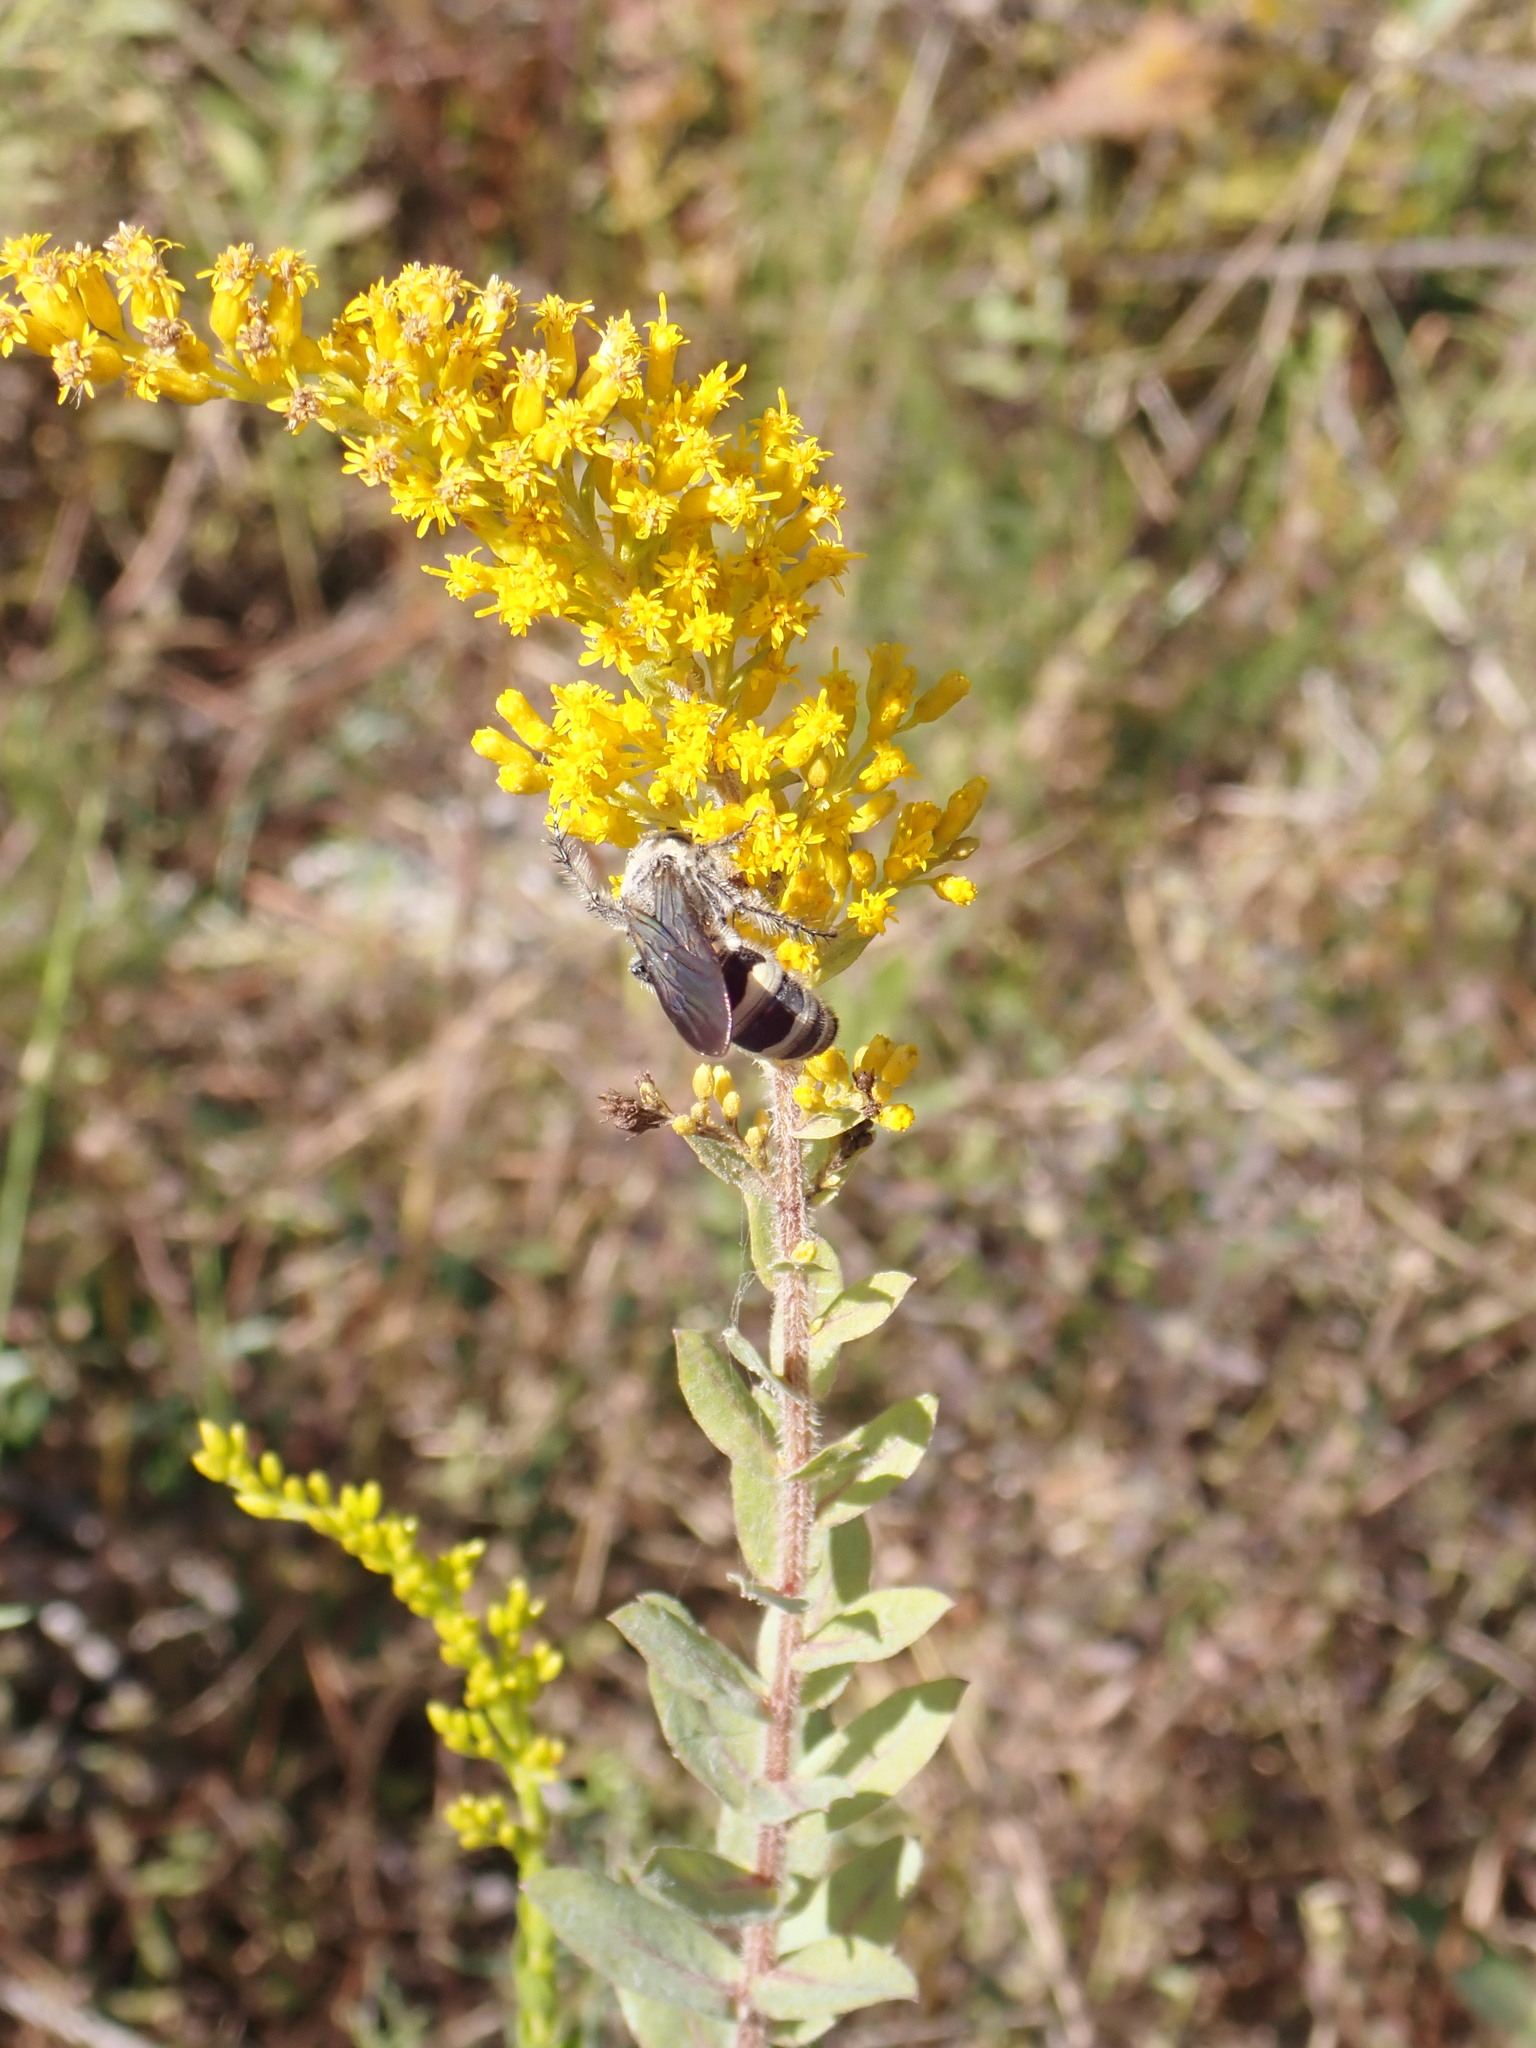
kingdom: Animalia
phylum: Arthropoda
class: Insecta
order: Hymenoptera
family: Scoliidae
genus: Dielis
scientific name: Dielis
